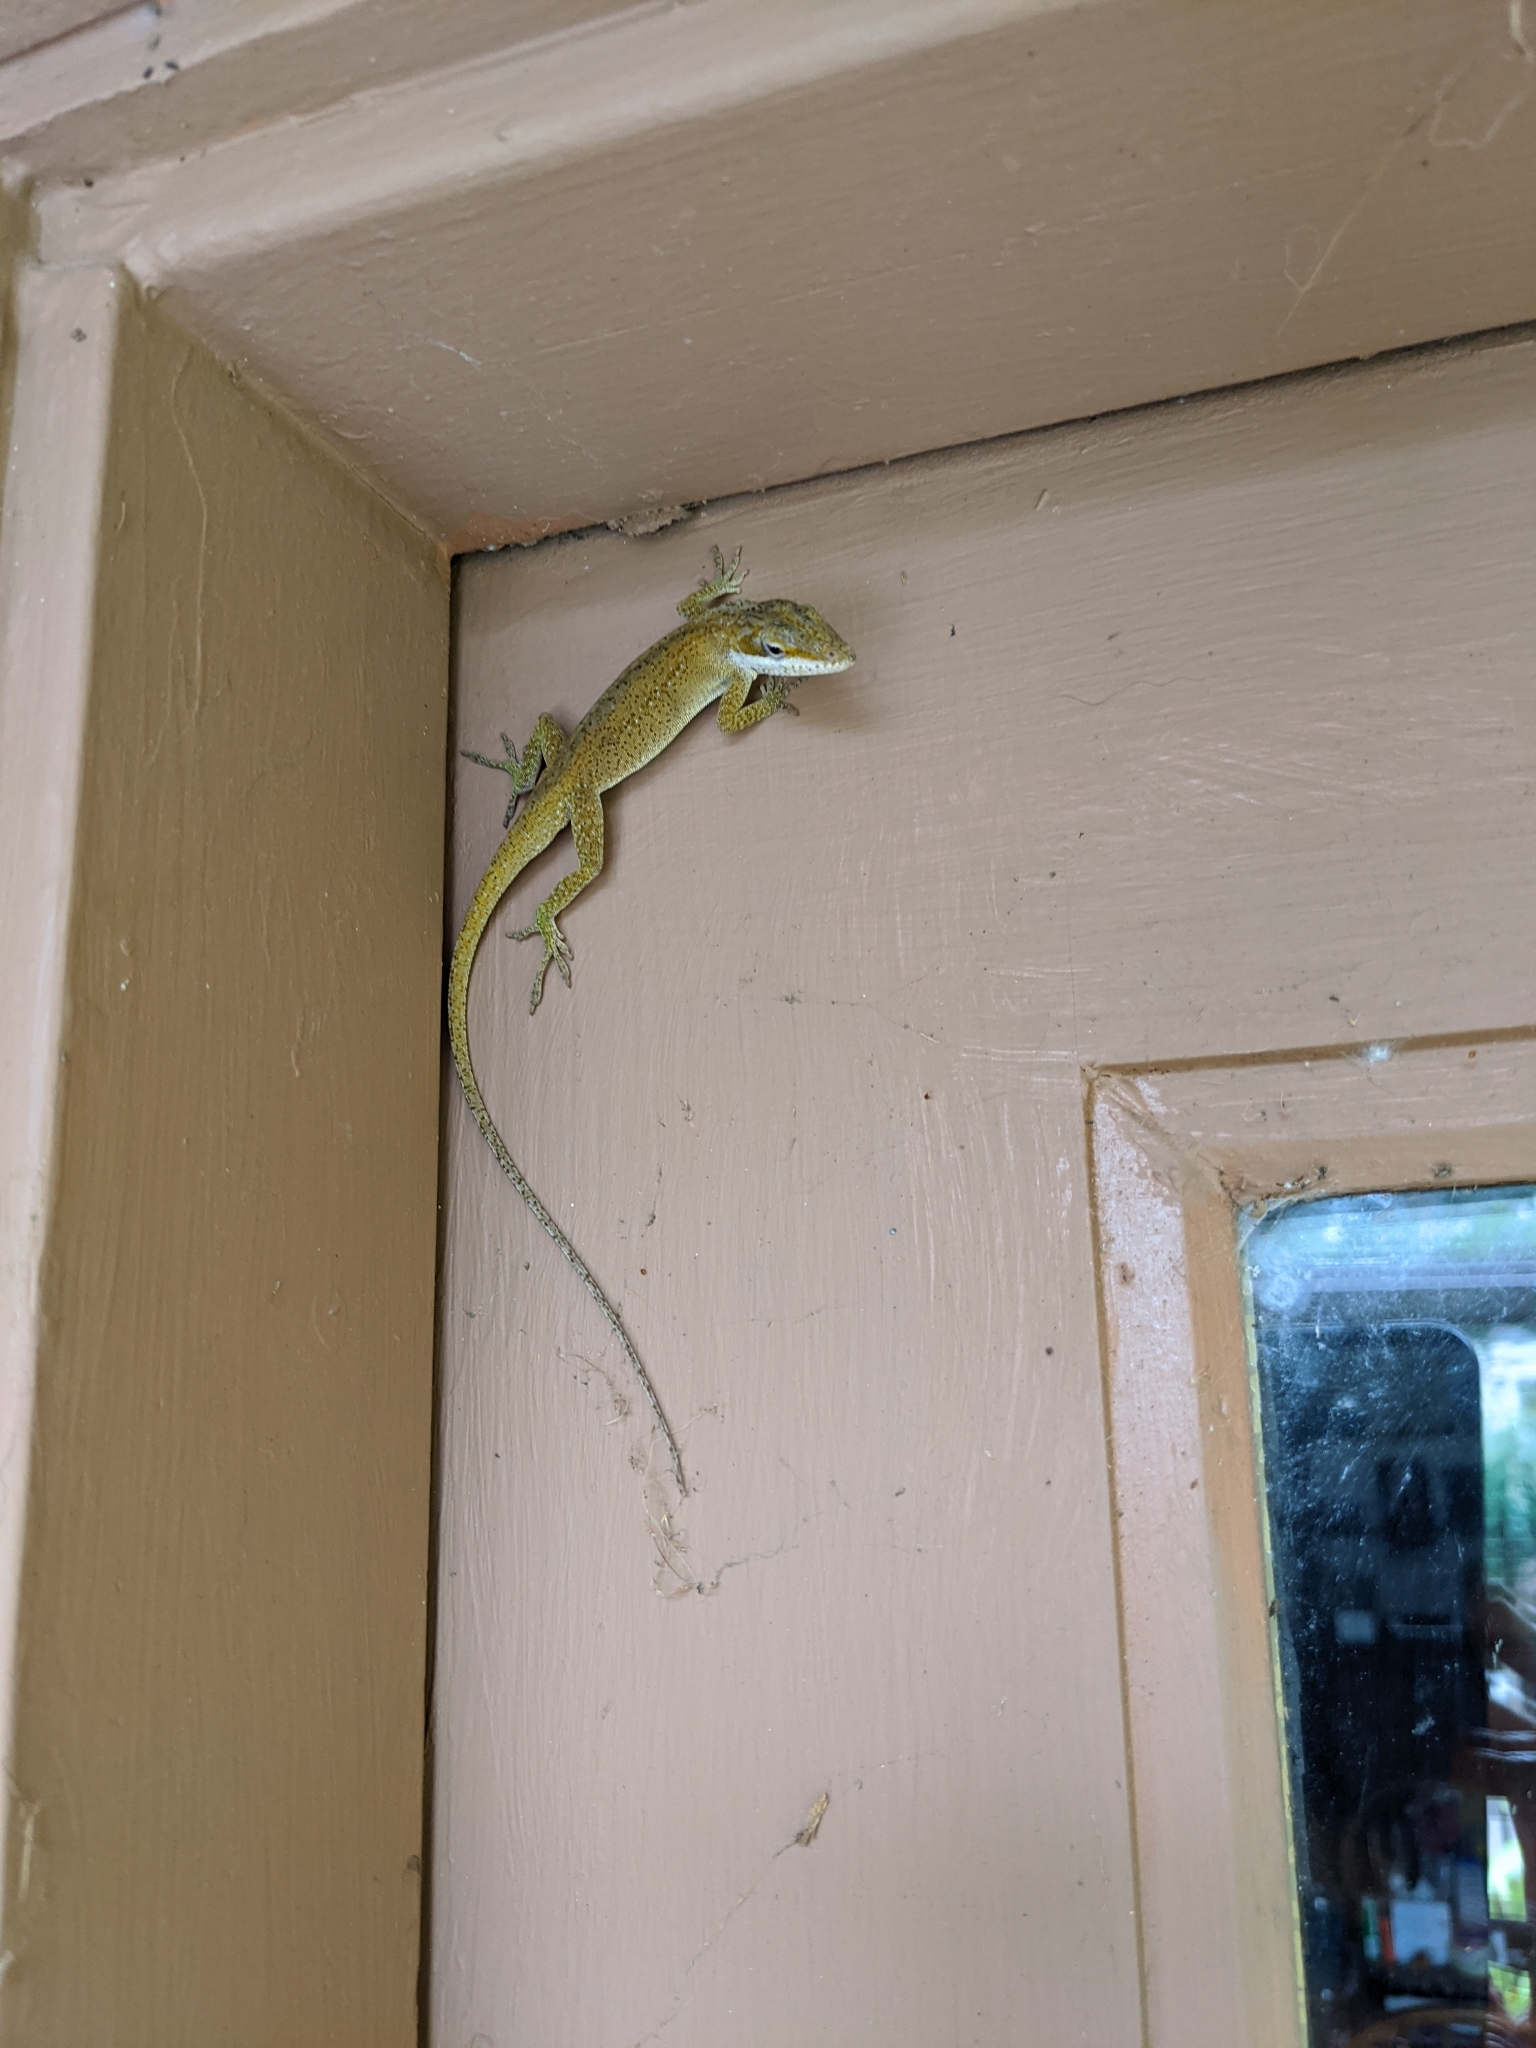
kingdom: Animalia
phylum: Chordata
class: Squamata
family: Dactyloidae
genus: Anolis
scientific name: Anolis carolinensis
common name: Green anole
